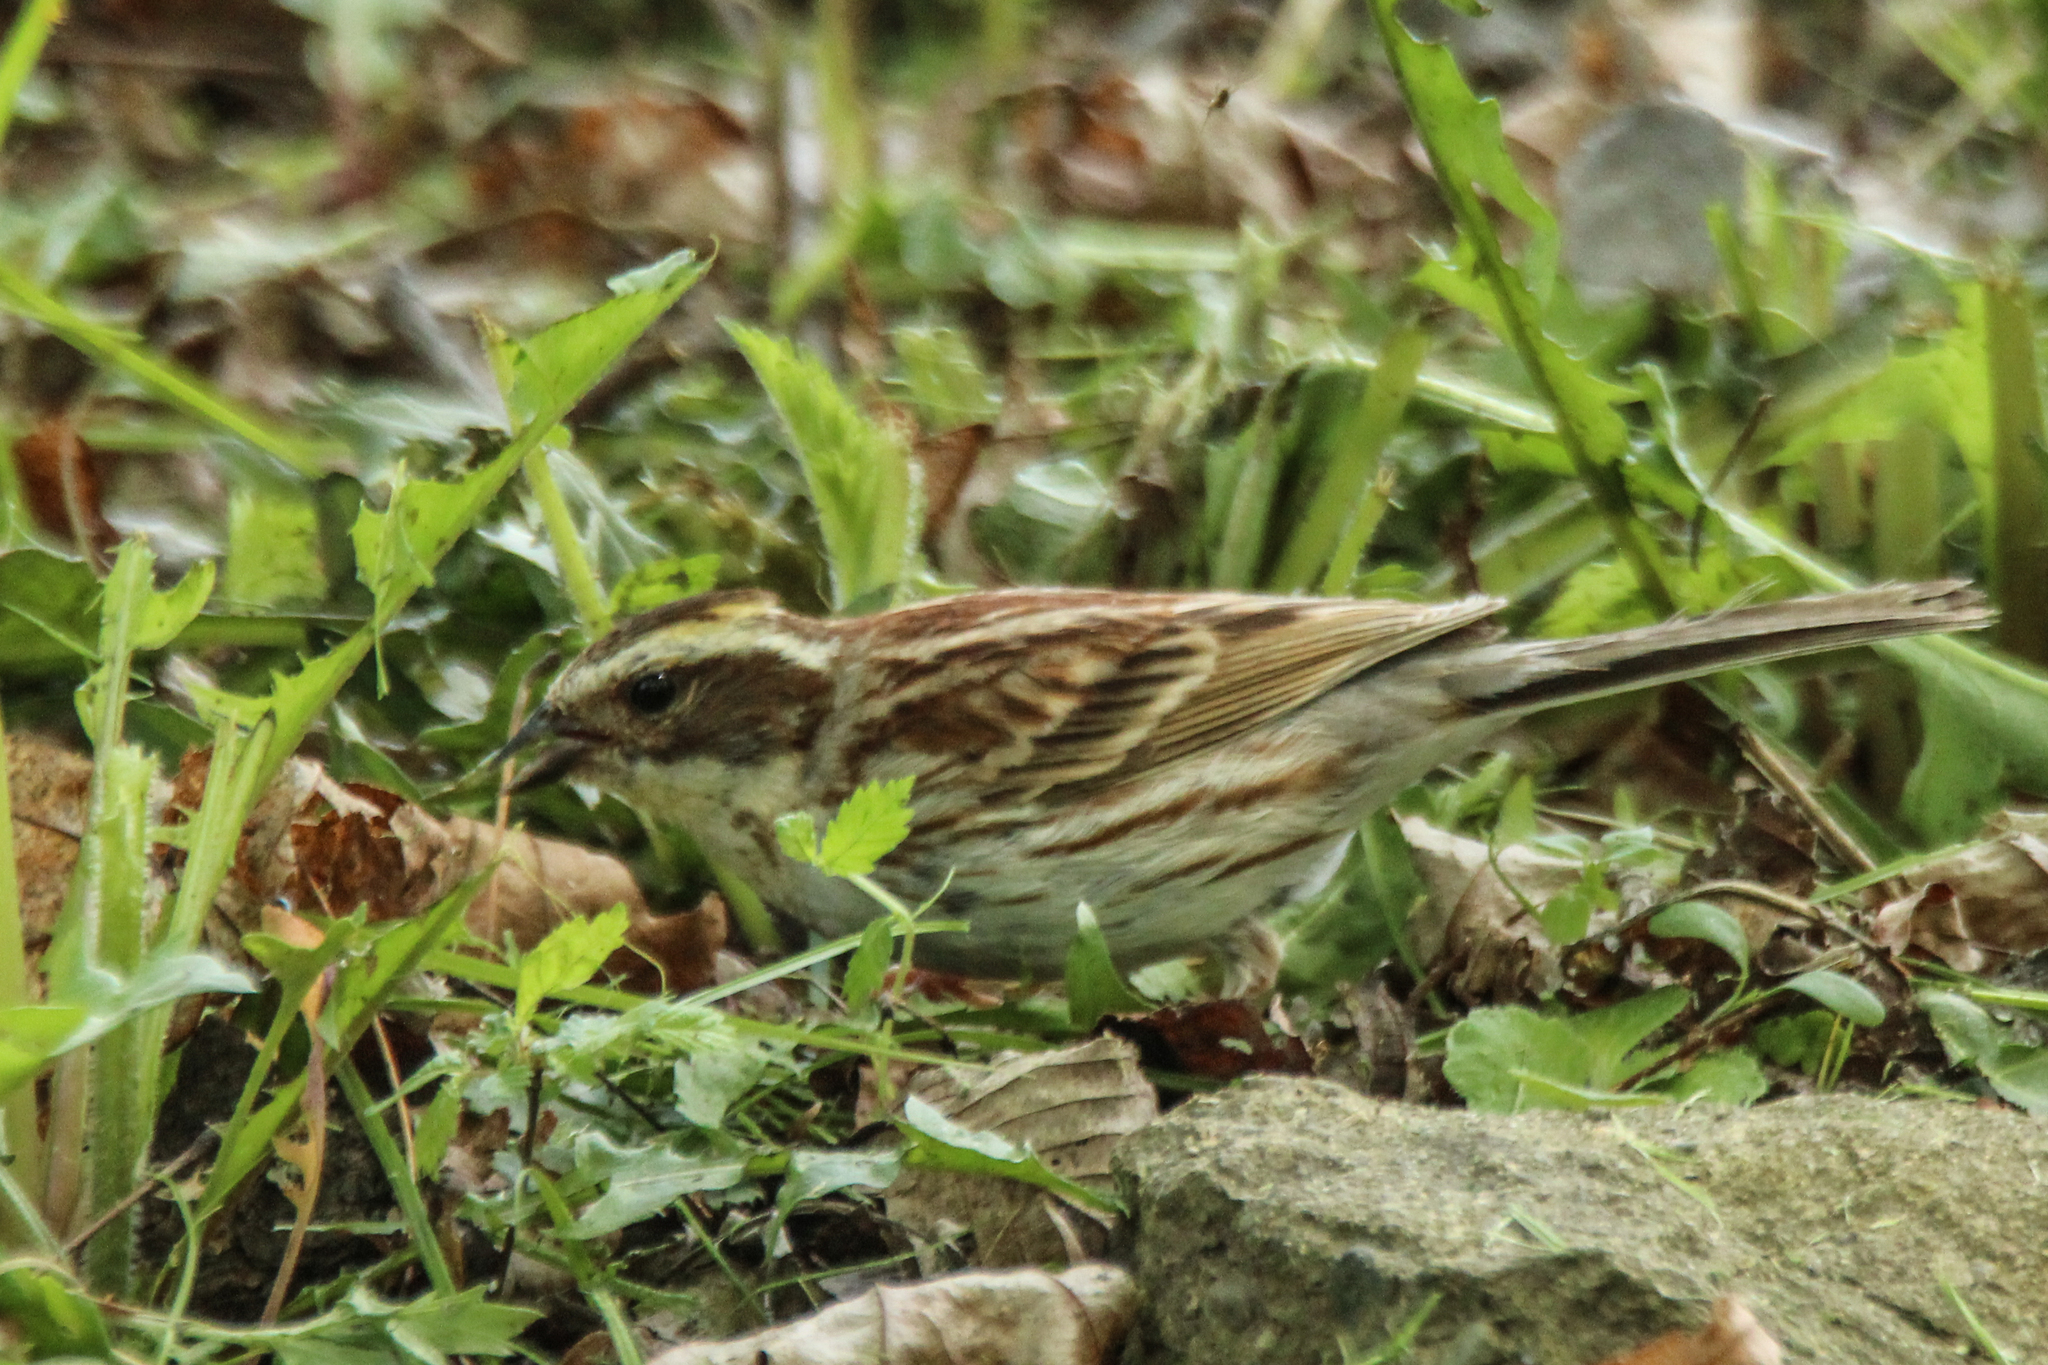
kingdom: Animalia
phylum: Chordata
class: Aves
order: Passeriformes
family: Emberizidae
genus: Emberiza
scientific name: Emberiza elegans
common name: Yellow-throated bunting
